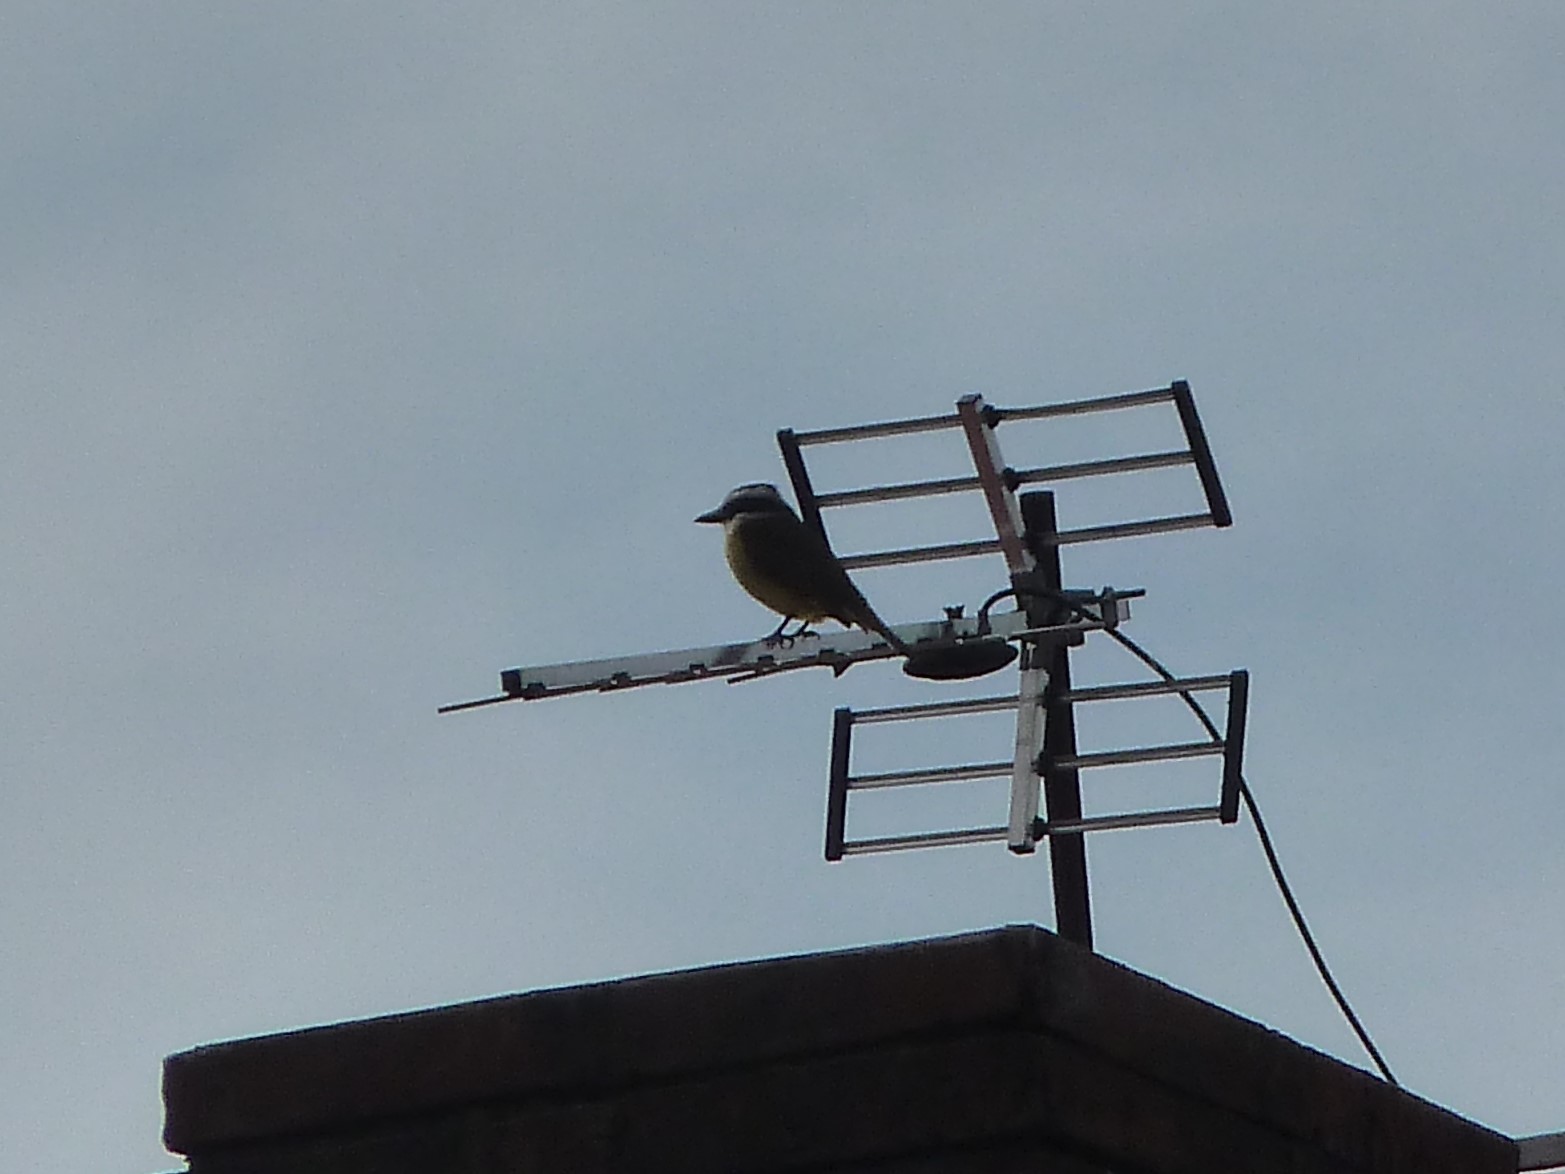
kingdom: Animalia
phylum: Chordata
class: Aves
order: Passeriformes
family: Tyrannidae
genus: Pitangus
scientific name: Pitangus sulphuratus
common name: Great kiskadee
